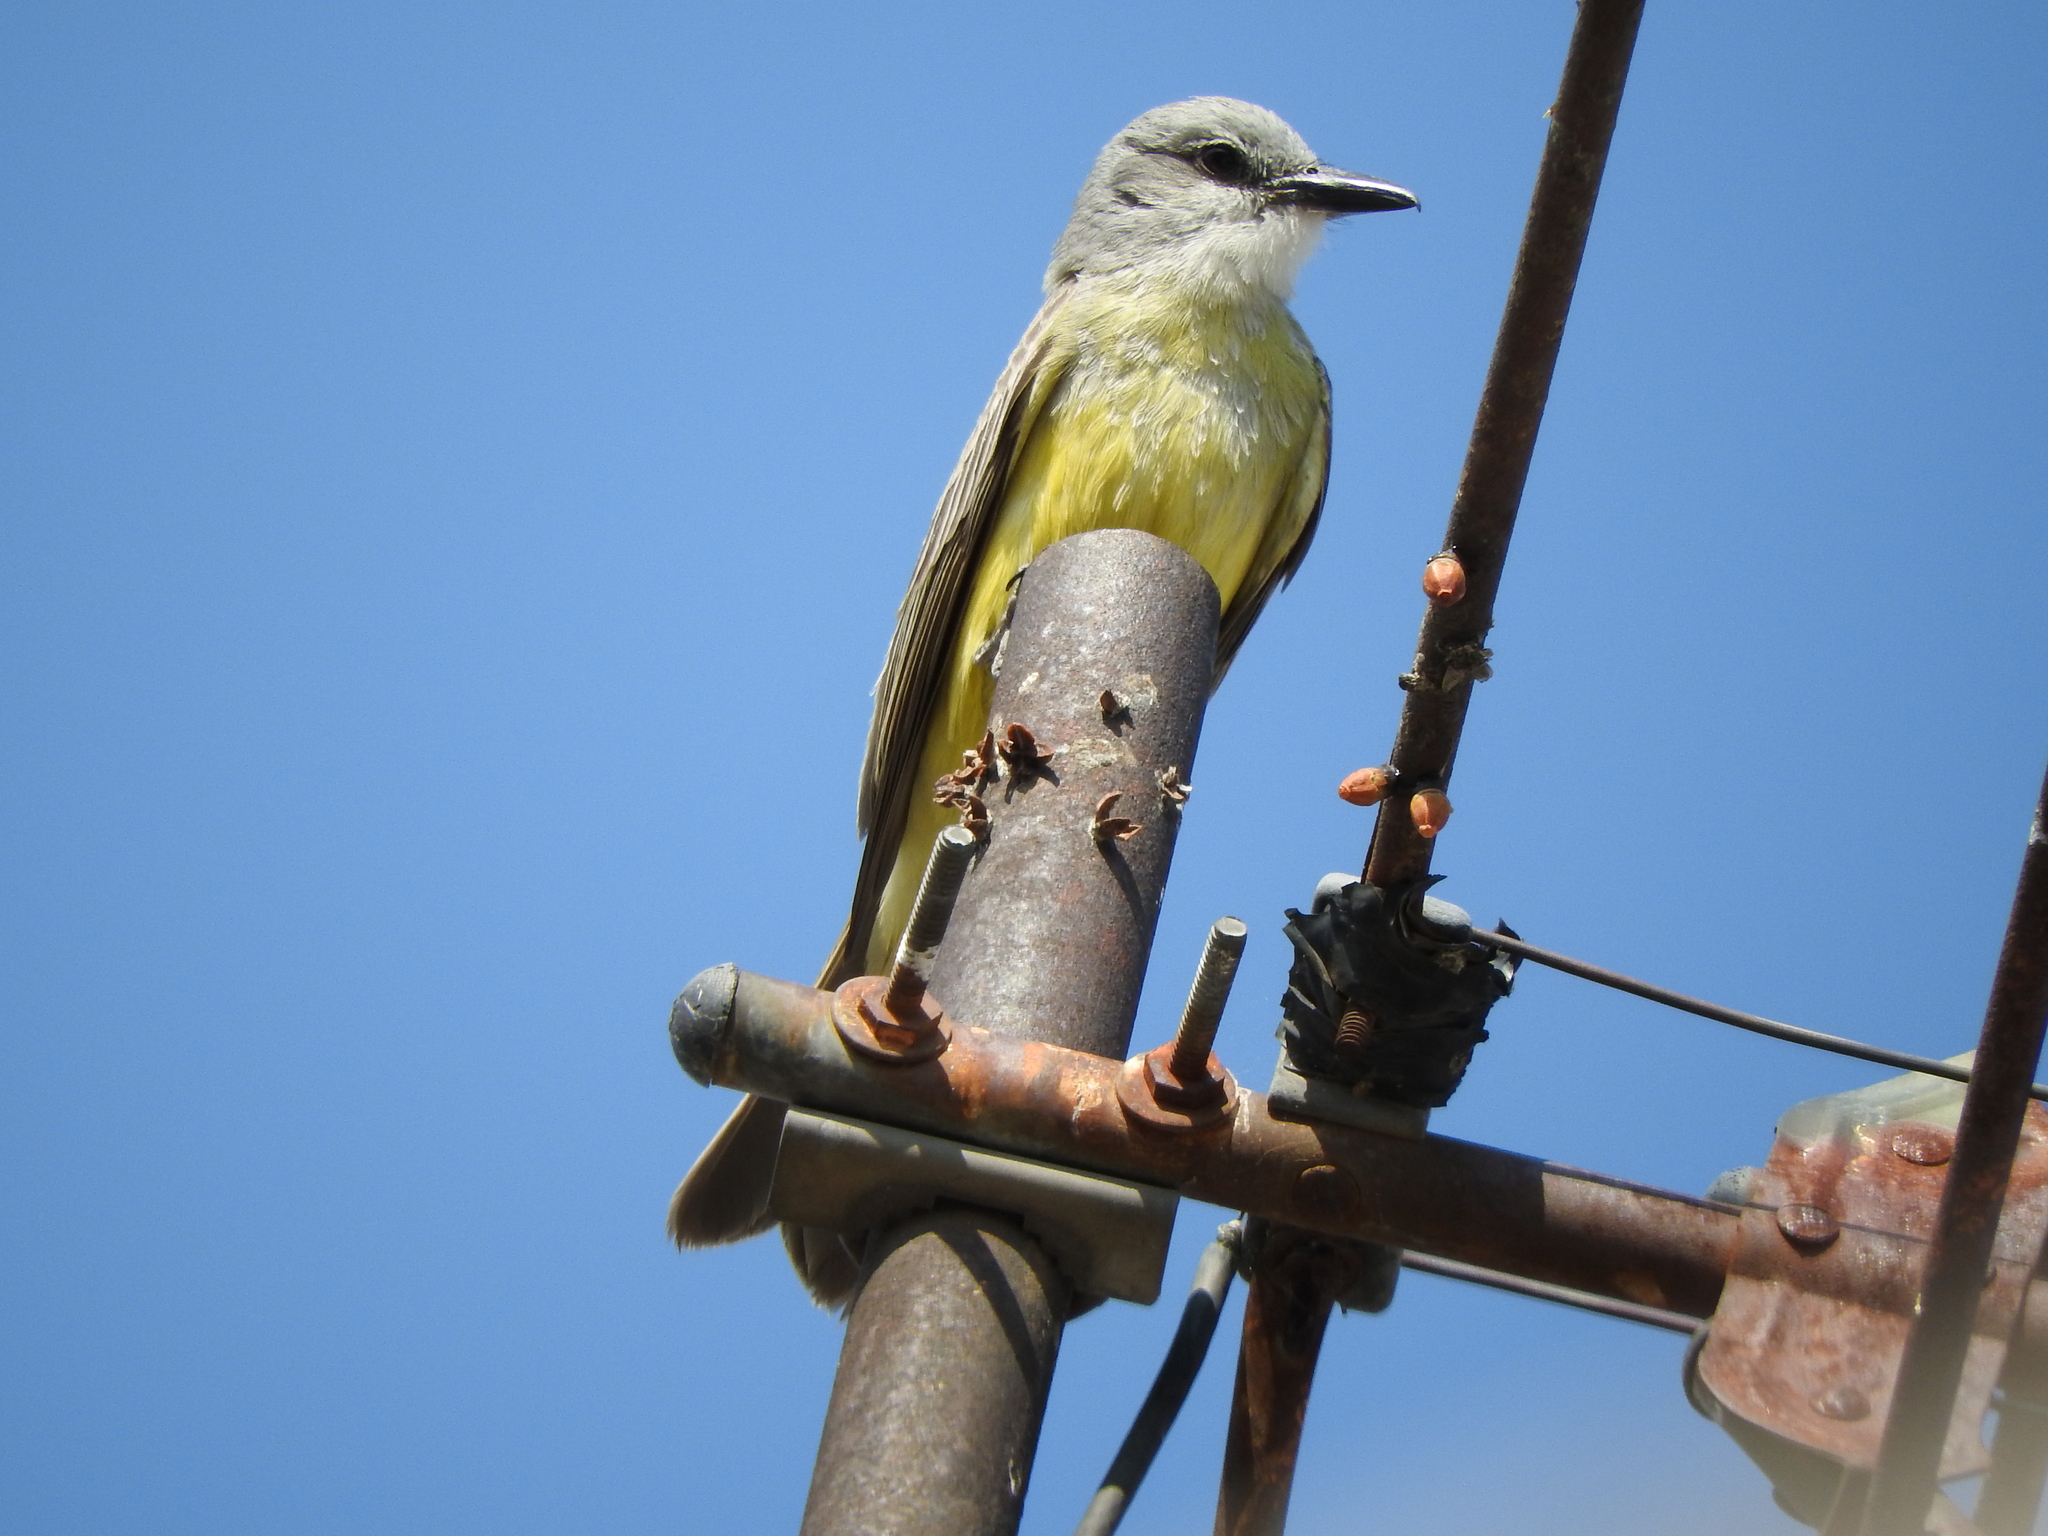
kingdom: Animalia
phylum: Chordata
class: Aves
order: Passeriformes
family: Tyrannidae
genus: Tyrannus
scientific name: Tyrannus melancholicus
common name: Tropical kingbird
